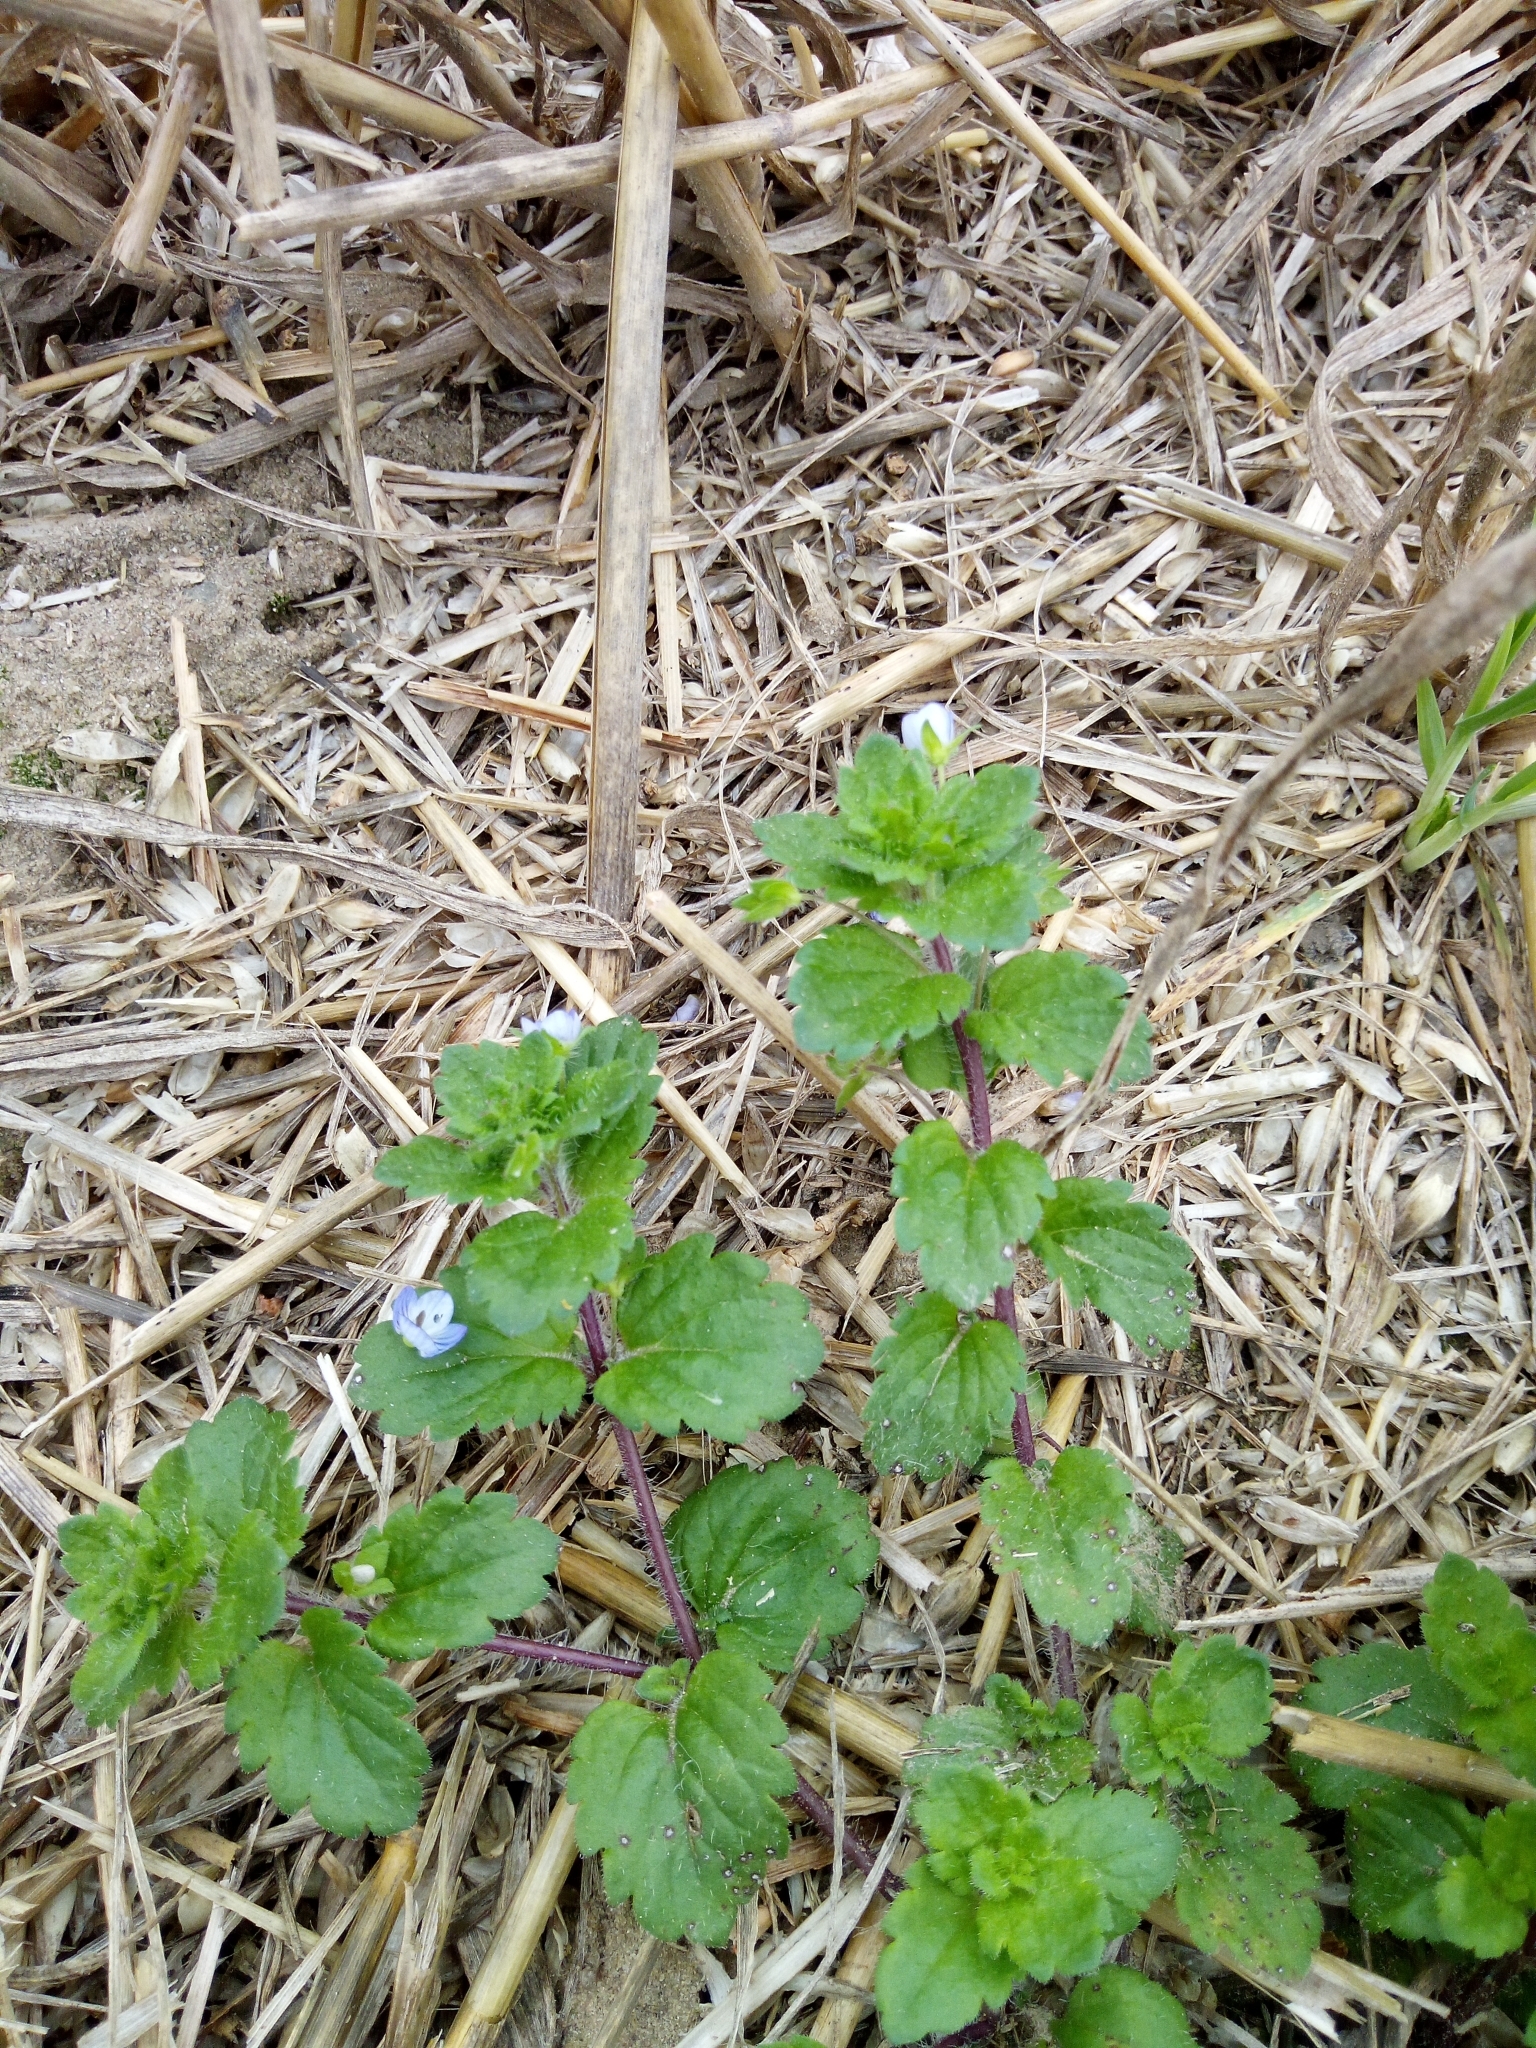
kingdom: Plantae
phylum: Tracheophyta
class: Magnoliopsida
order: Lamiales
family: Plantaginaceae
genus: Veronica
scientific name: Veronica persica
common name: Common field-speedwell
